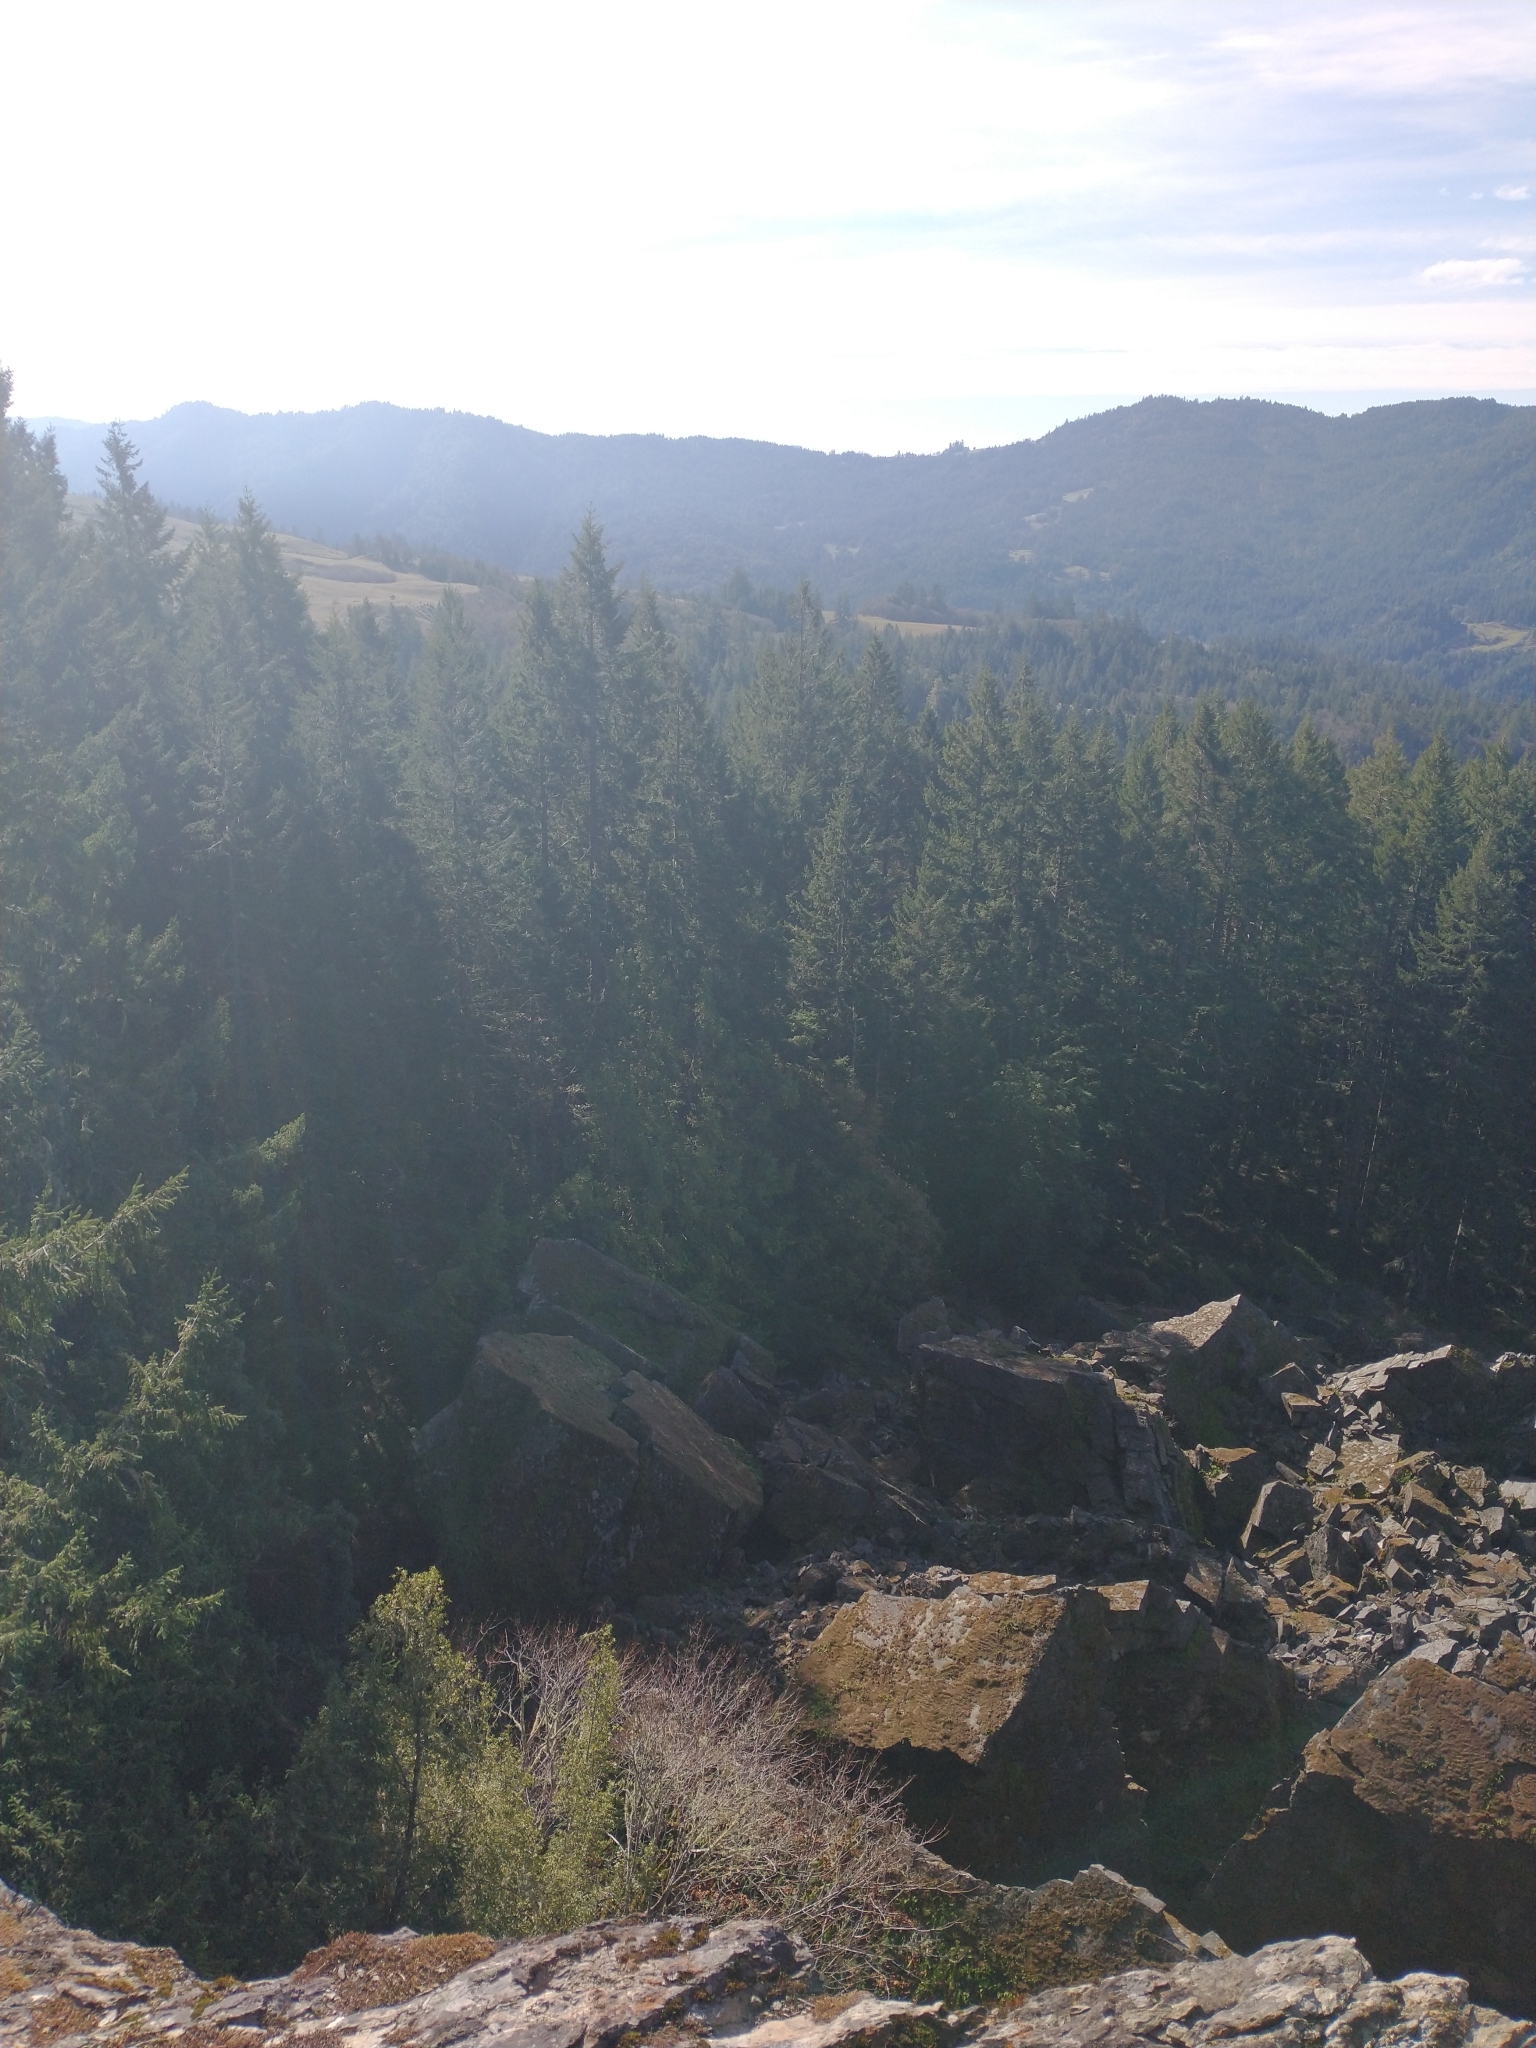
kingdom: Plantae
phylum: Tracheophyta
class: Pinopsida
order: Pinales
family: Pinaceae
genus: Pseudotsuga
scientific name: Pseudotsuga menziesii
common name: Douglas fir
